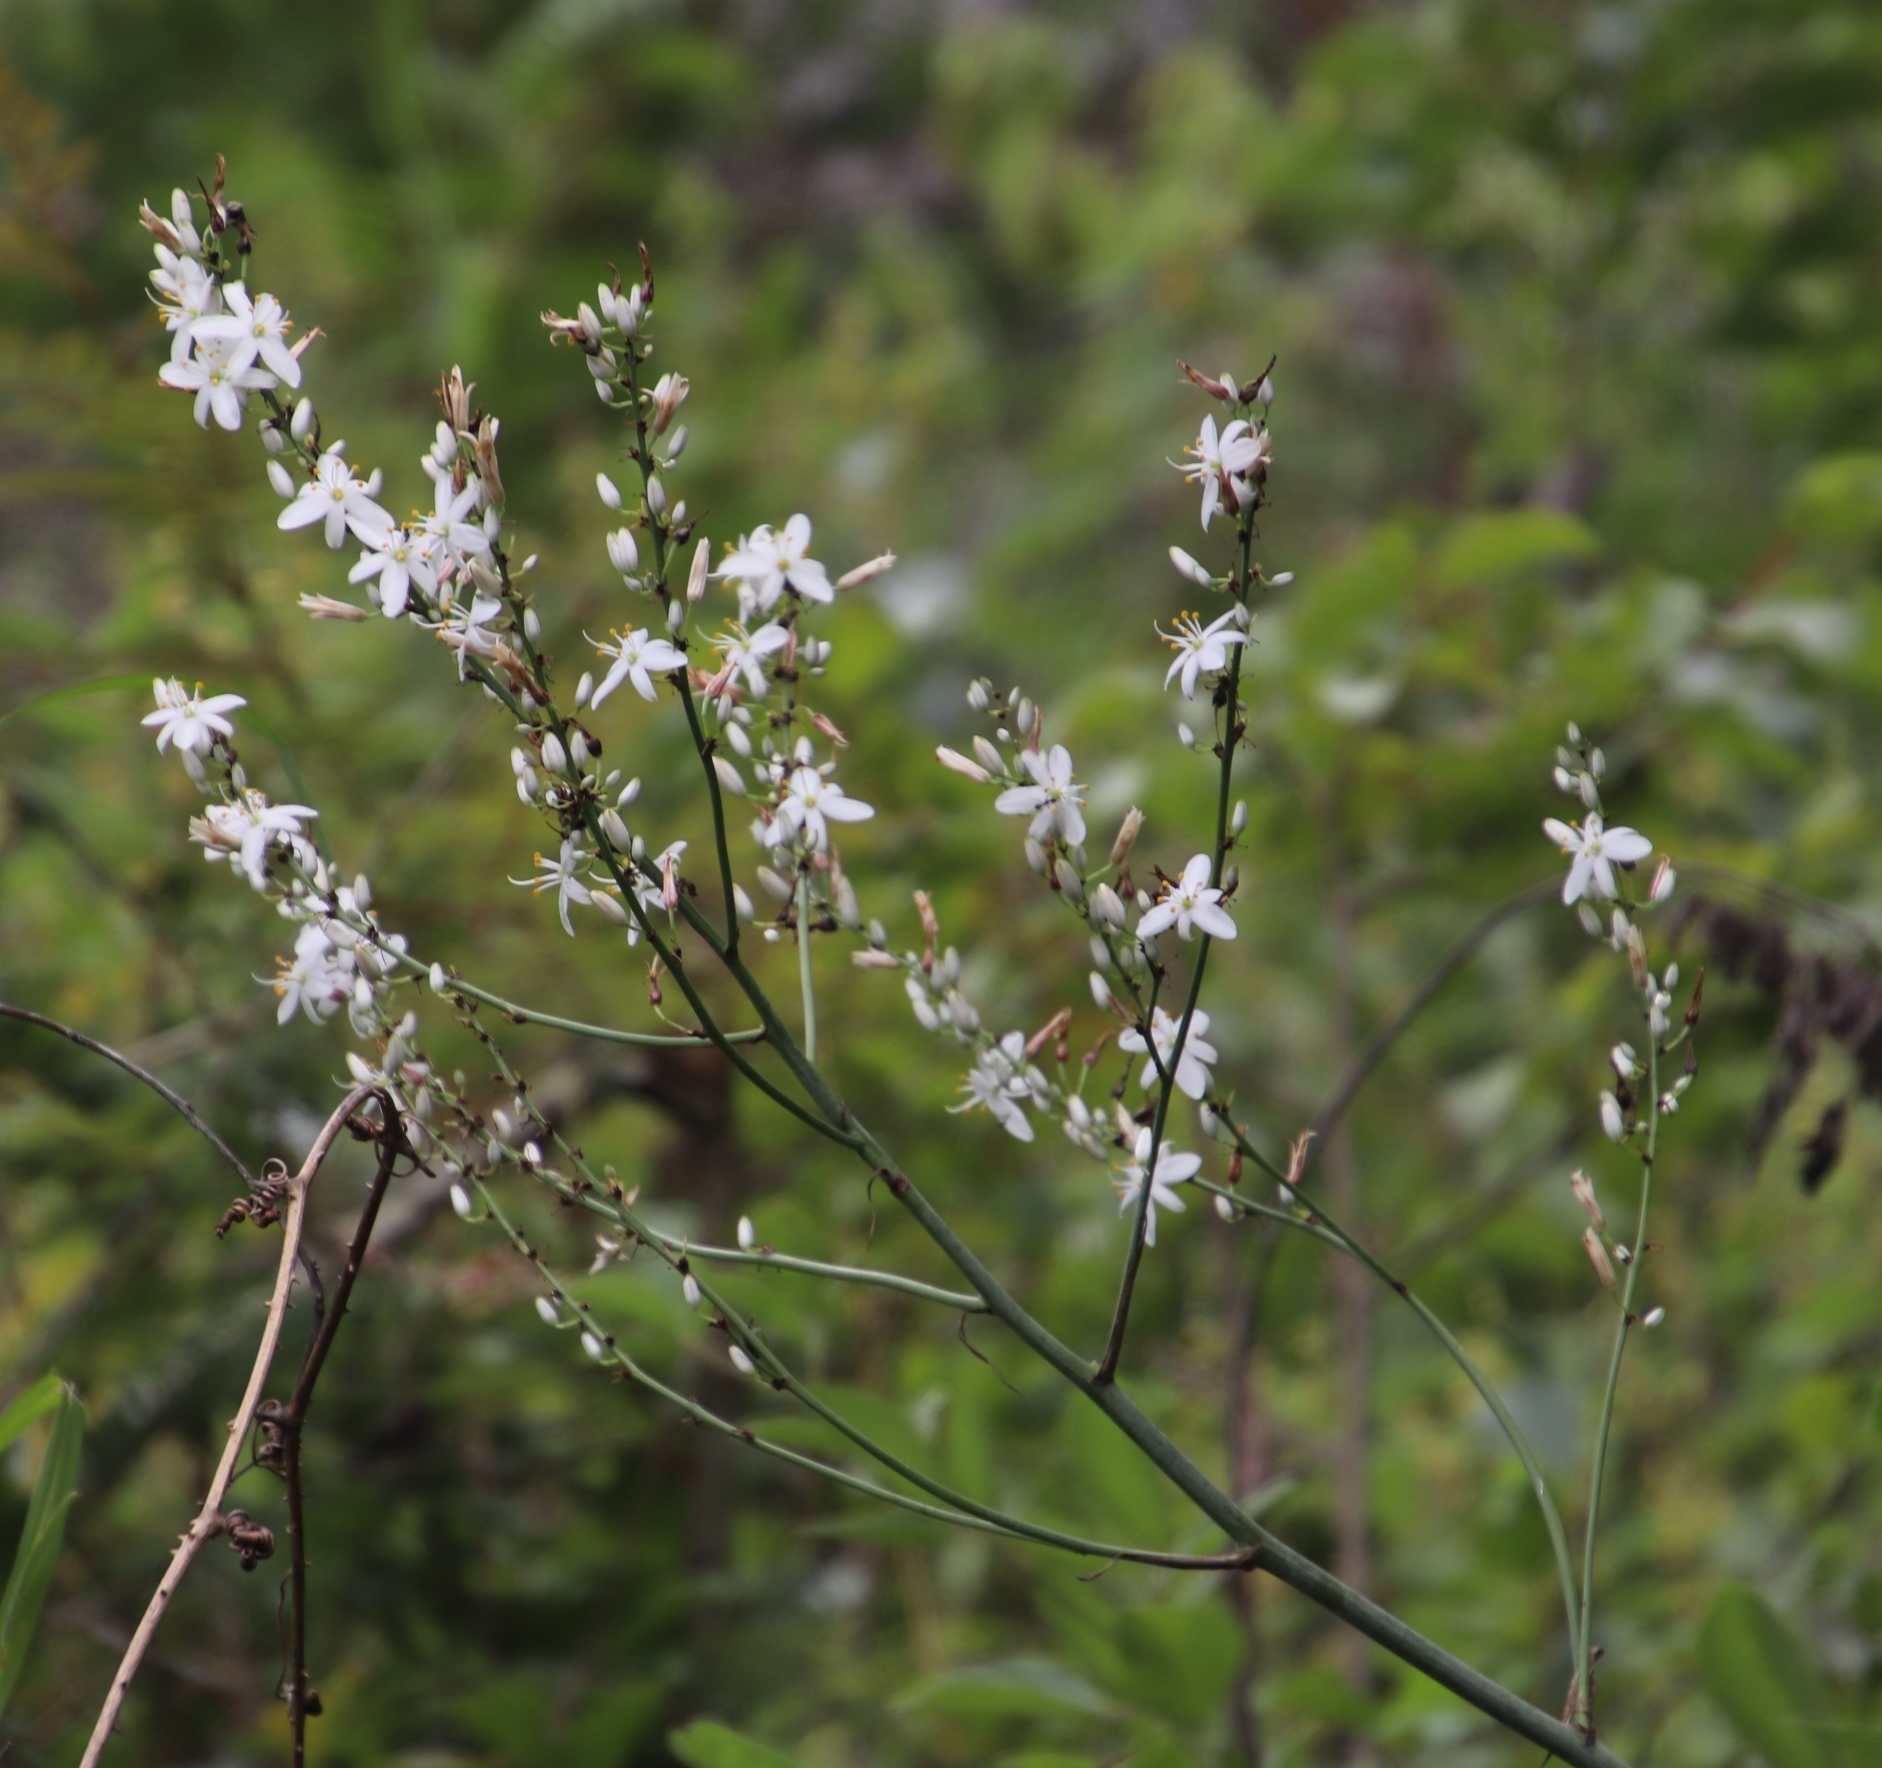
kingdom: Plantae
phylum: Tracheophyta
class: Liliopsida
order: Asparagales
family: Asparagaceae
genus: Chlorophytum
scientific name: Chlorophytum krookianum
